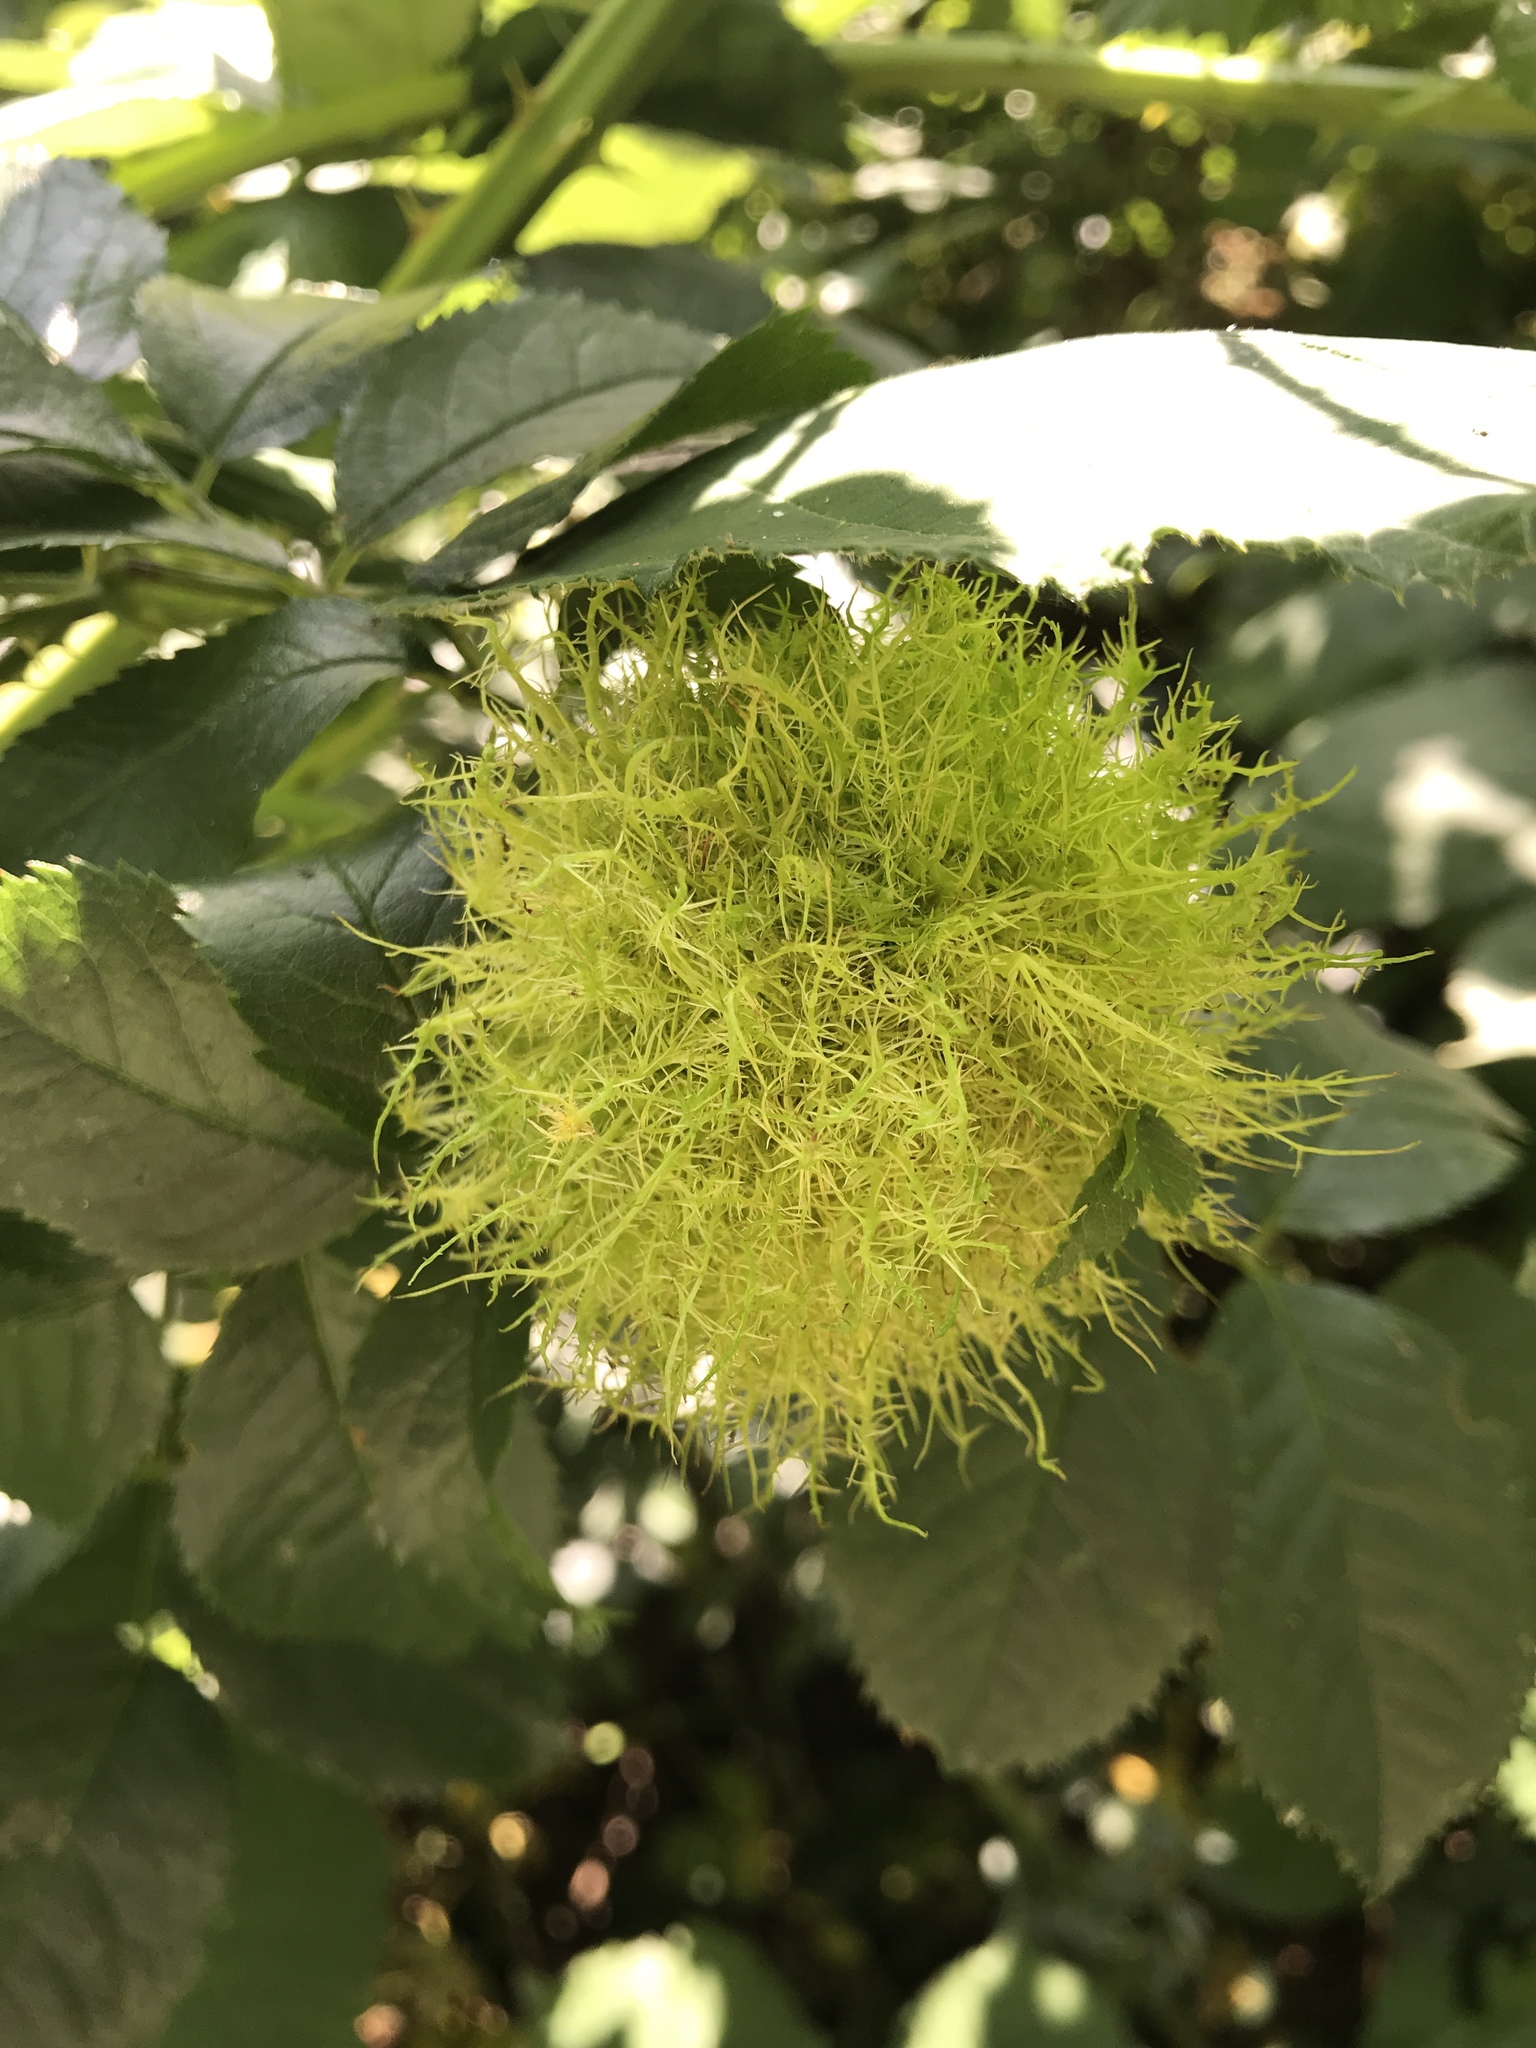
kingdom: Animalia
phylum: Arthropoda
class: Insecta
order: Hymenoptera
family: Cynipidae
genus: Diplolepis
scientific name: Diplolepis rosae
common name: Bedeguar gall
